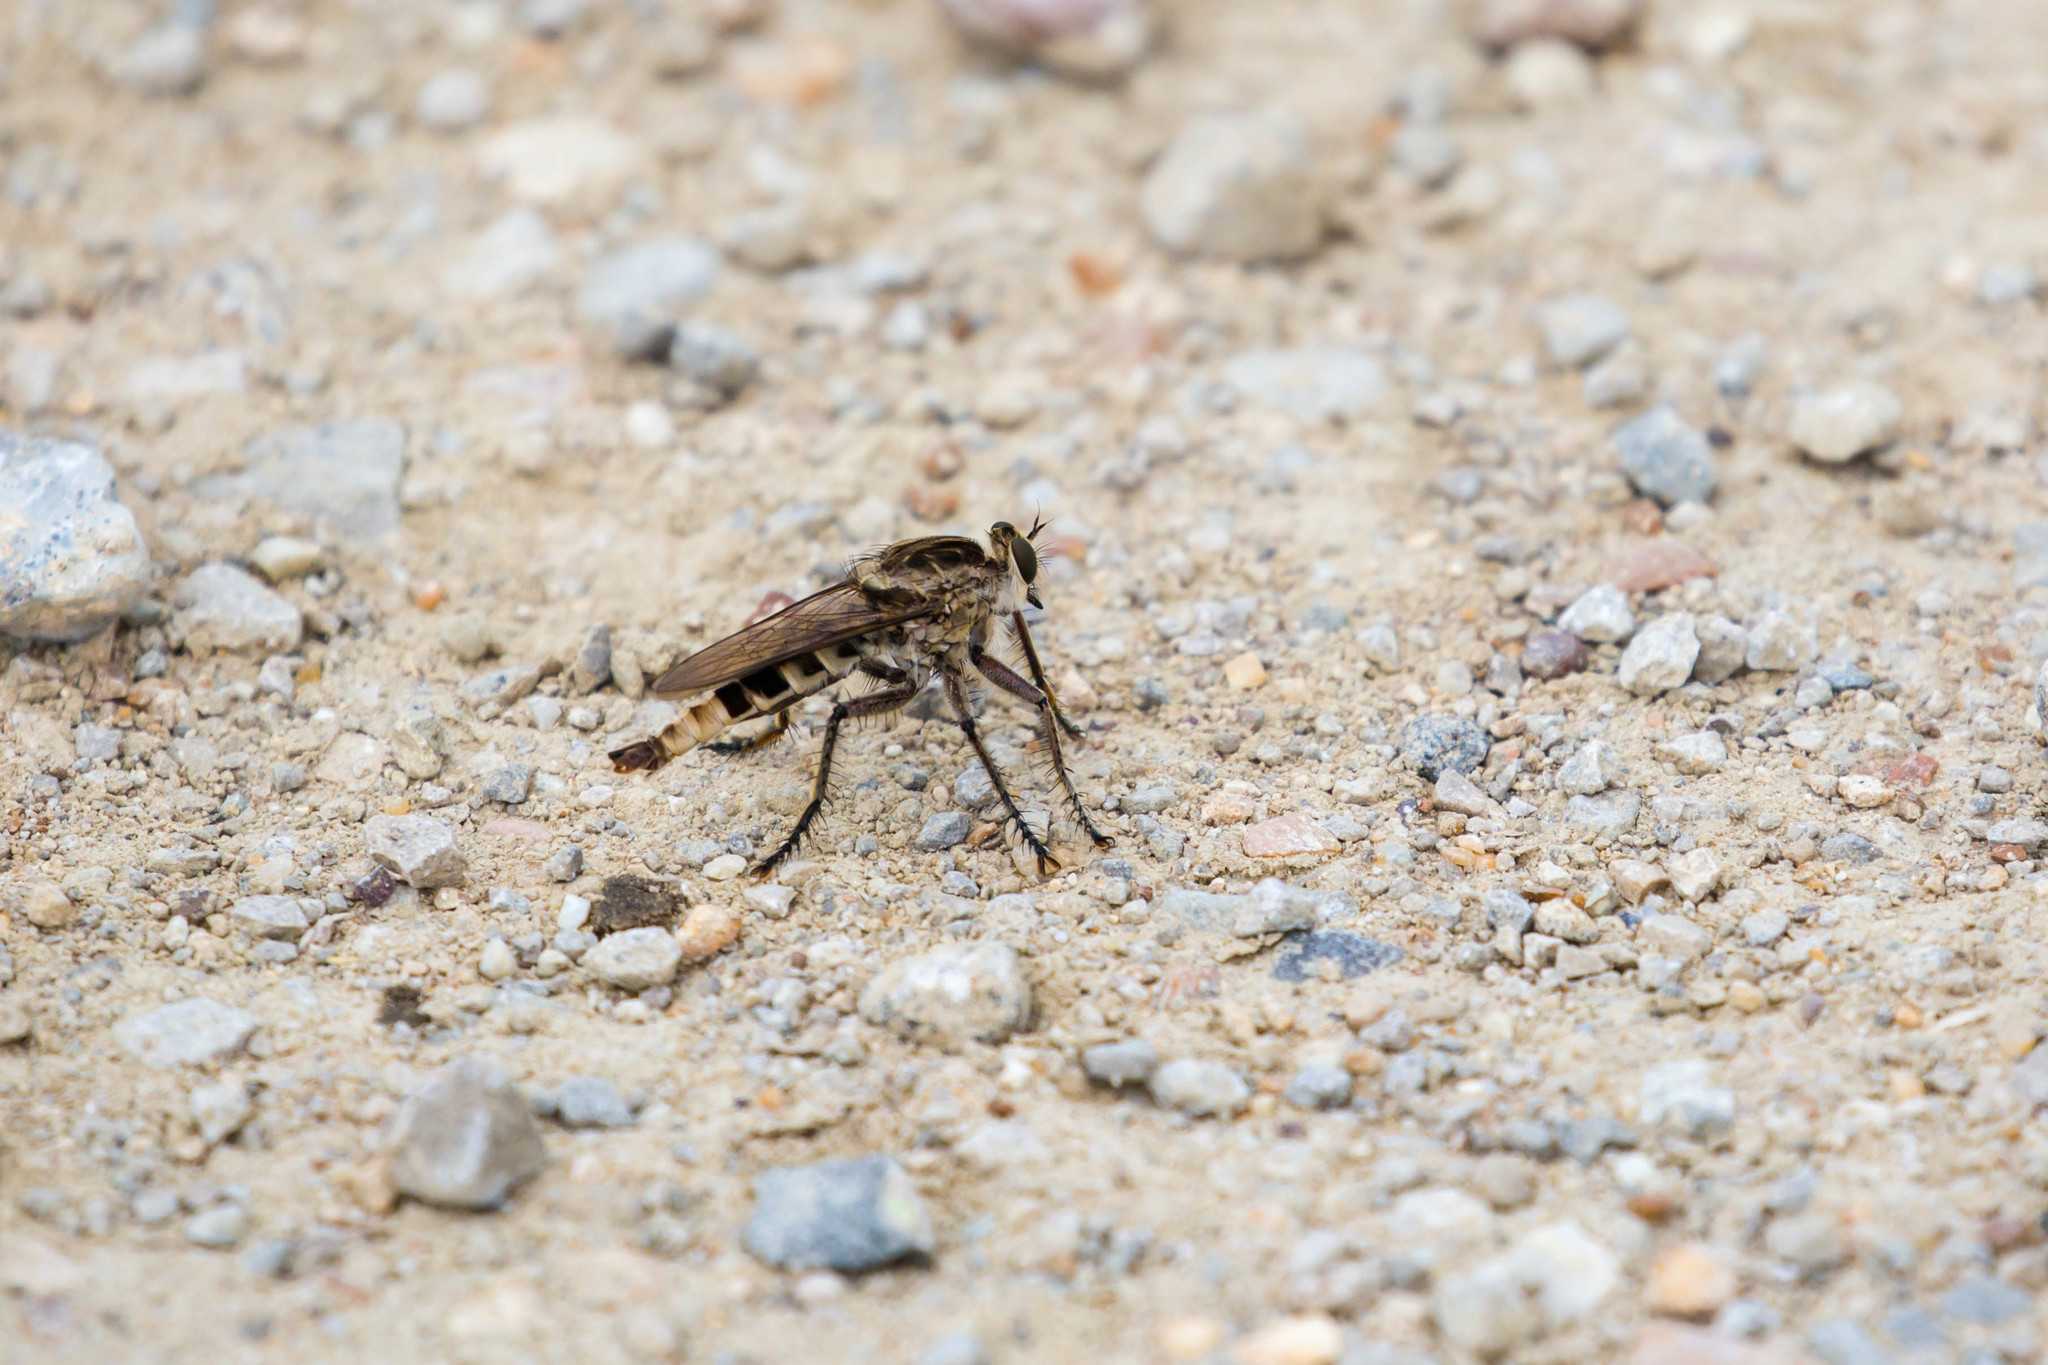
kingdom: Animalia
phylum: Arthropoda
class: Insecta
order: Diptera
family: Asilidae
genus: Triorla
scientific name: Triorla interrupta
